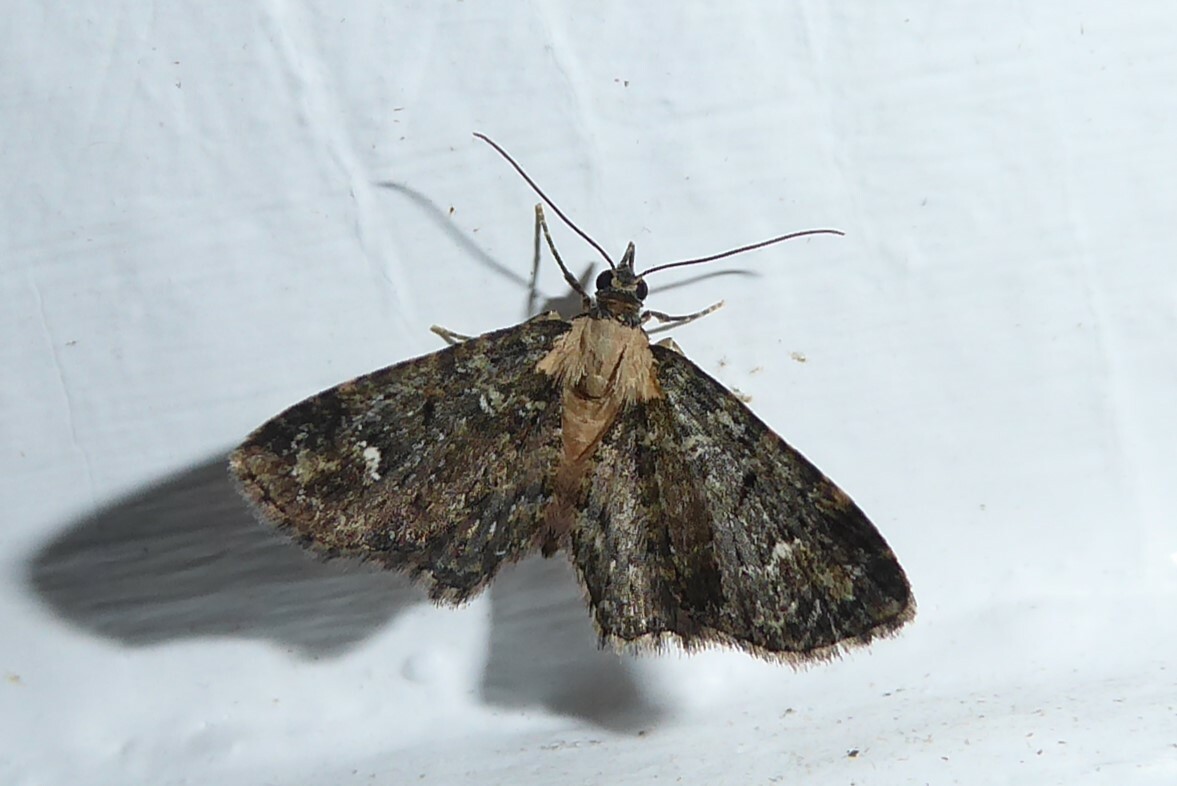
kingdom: Animalia
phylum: Arthropoda
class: Insecta
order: Lepidoptera
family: Geometridae
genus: Pasiphilodes
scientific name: Pasiphilodes testulata
